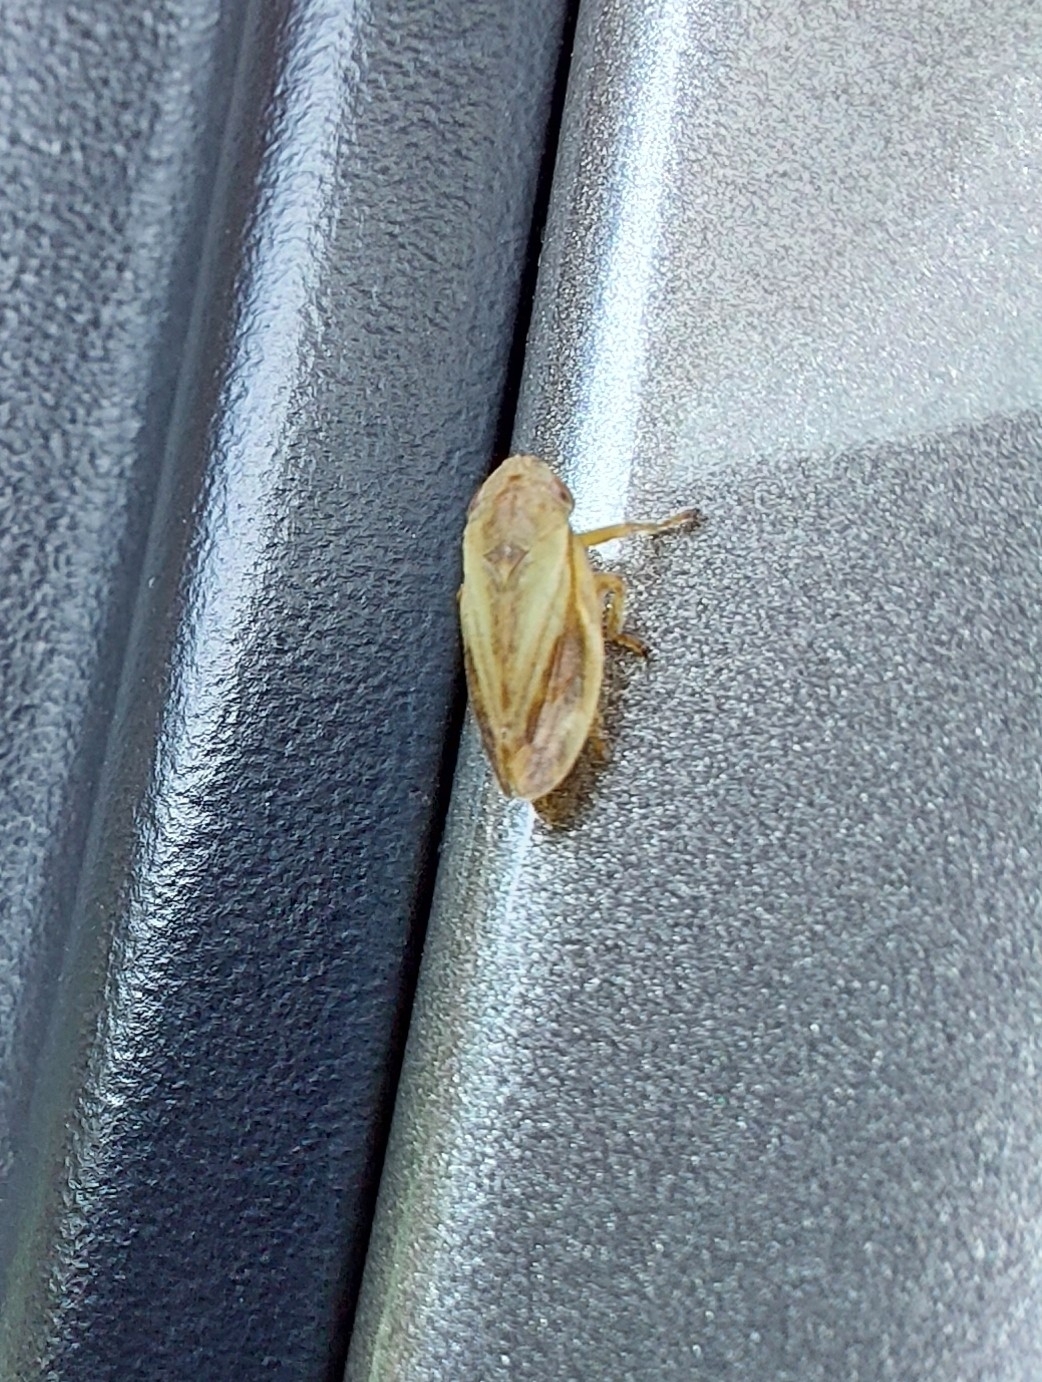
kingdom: Animalia
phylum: Arthropoda
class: Insecta
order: Hemiptera
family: Aphrophoridae
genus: Philaenus
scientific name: Philaenus spumarius
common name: Meadow spittlebug
